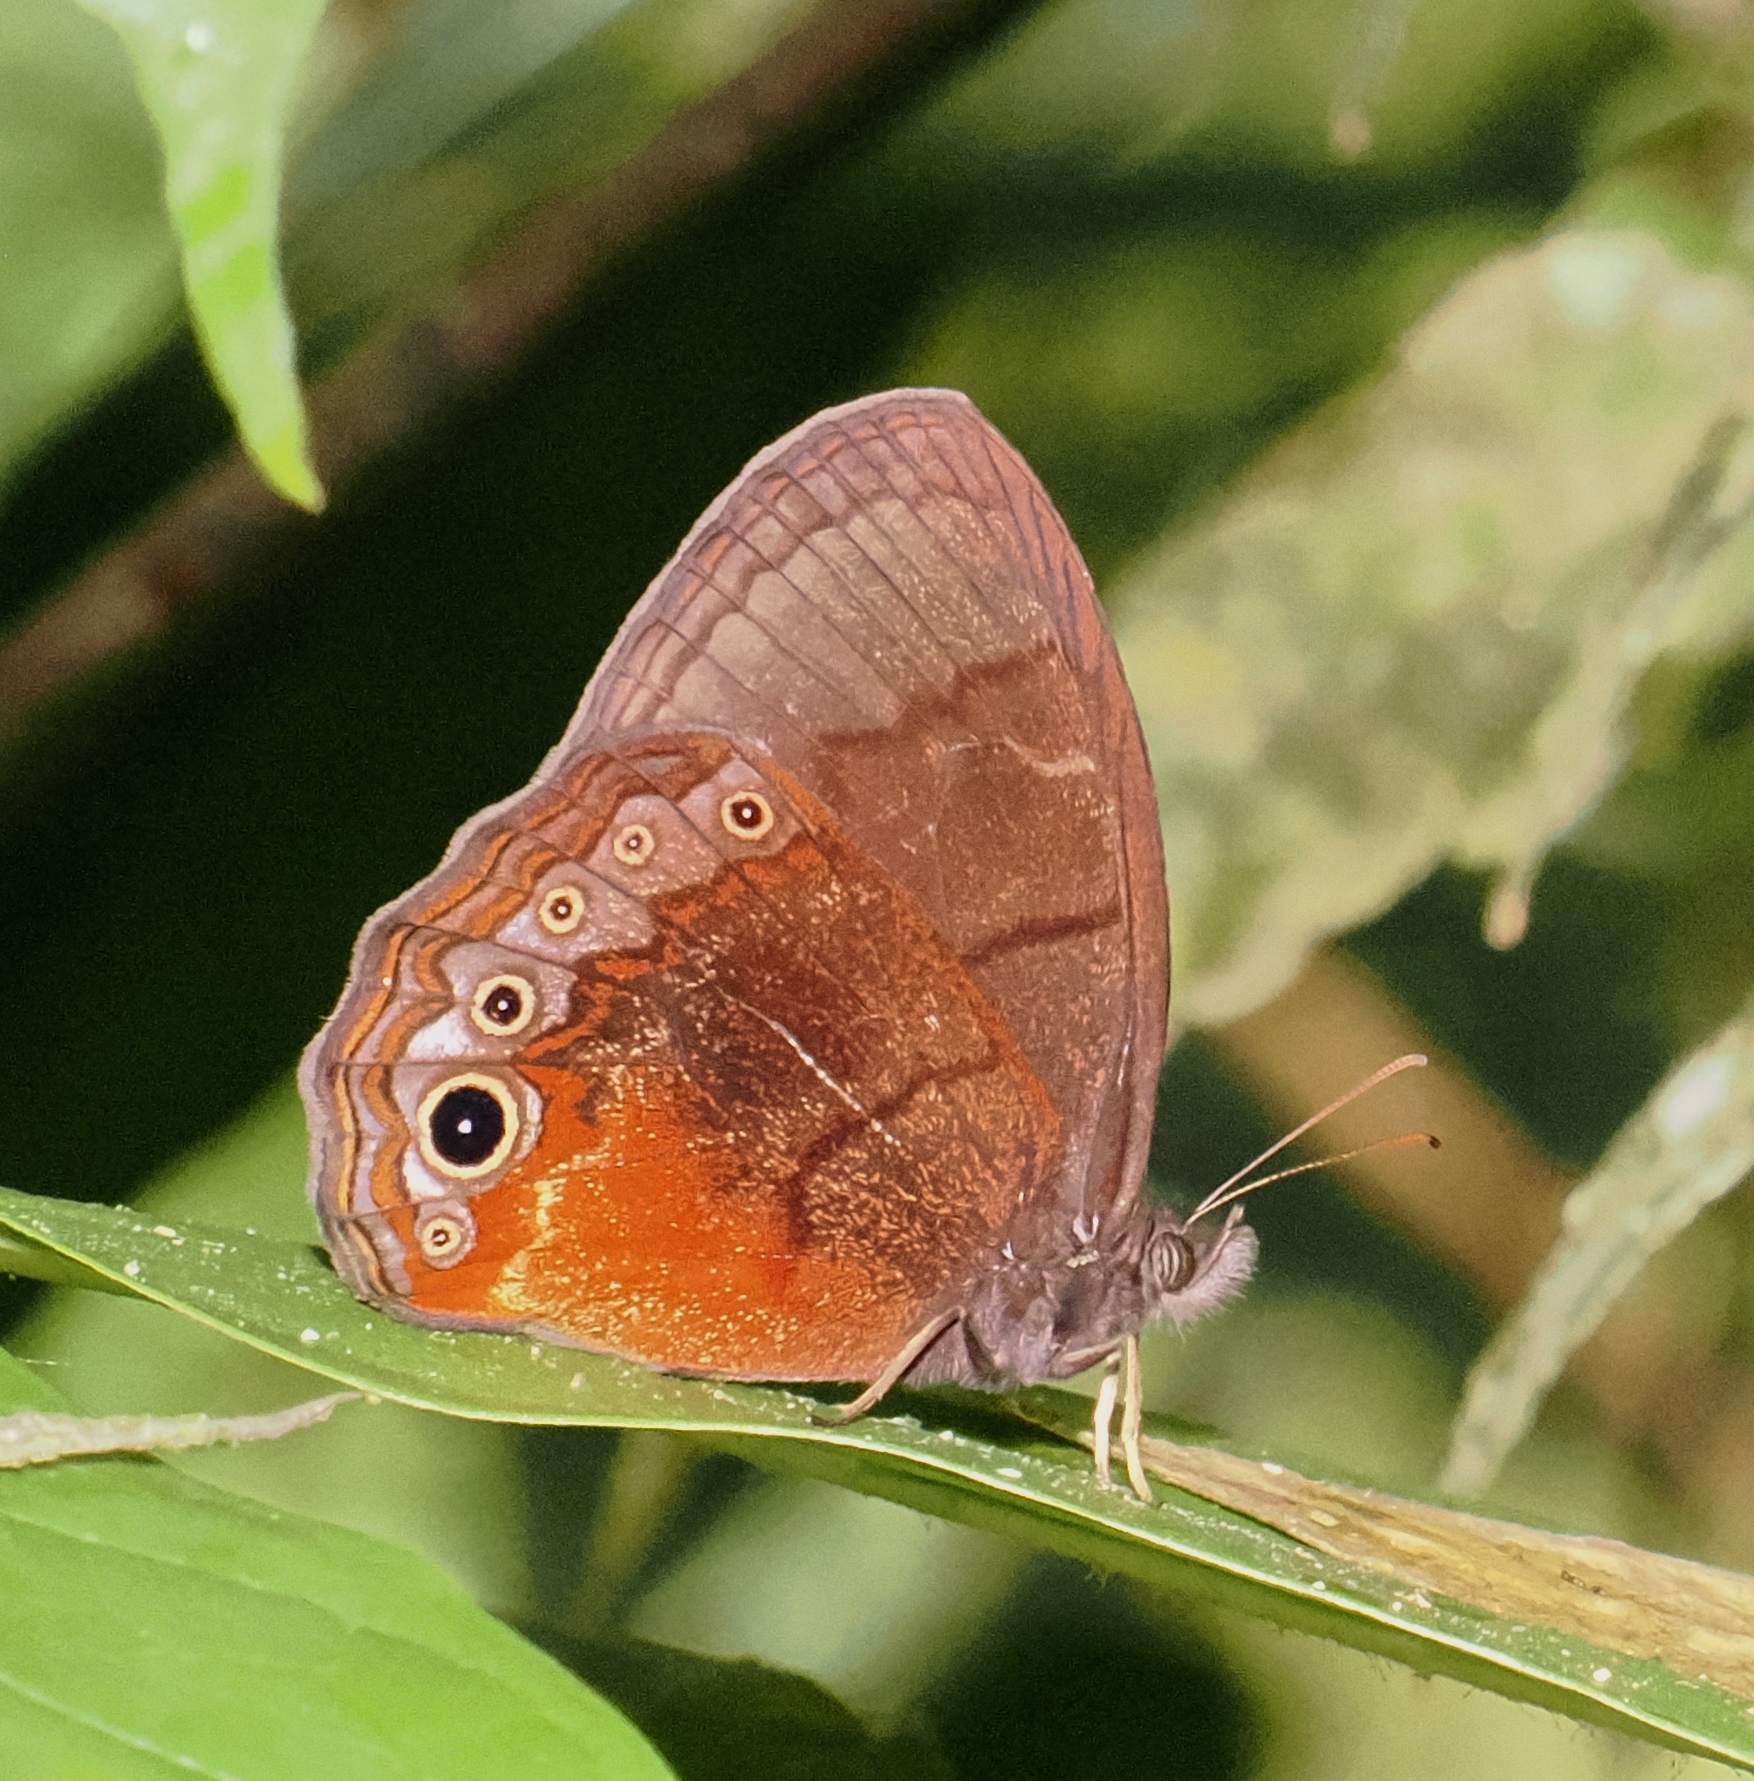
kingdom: Animalia
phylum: Arthropoda
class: Insecta
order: Lepidoptera
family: Nymphalidae
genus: Eretris
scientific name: Eretris calisto
